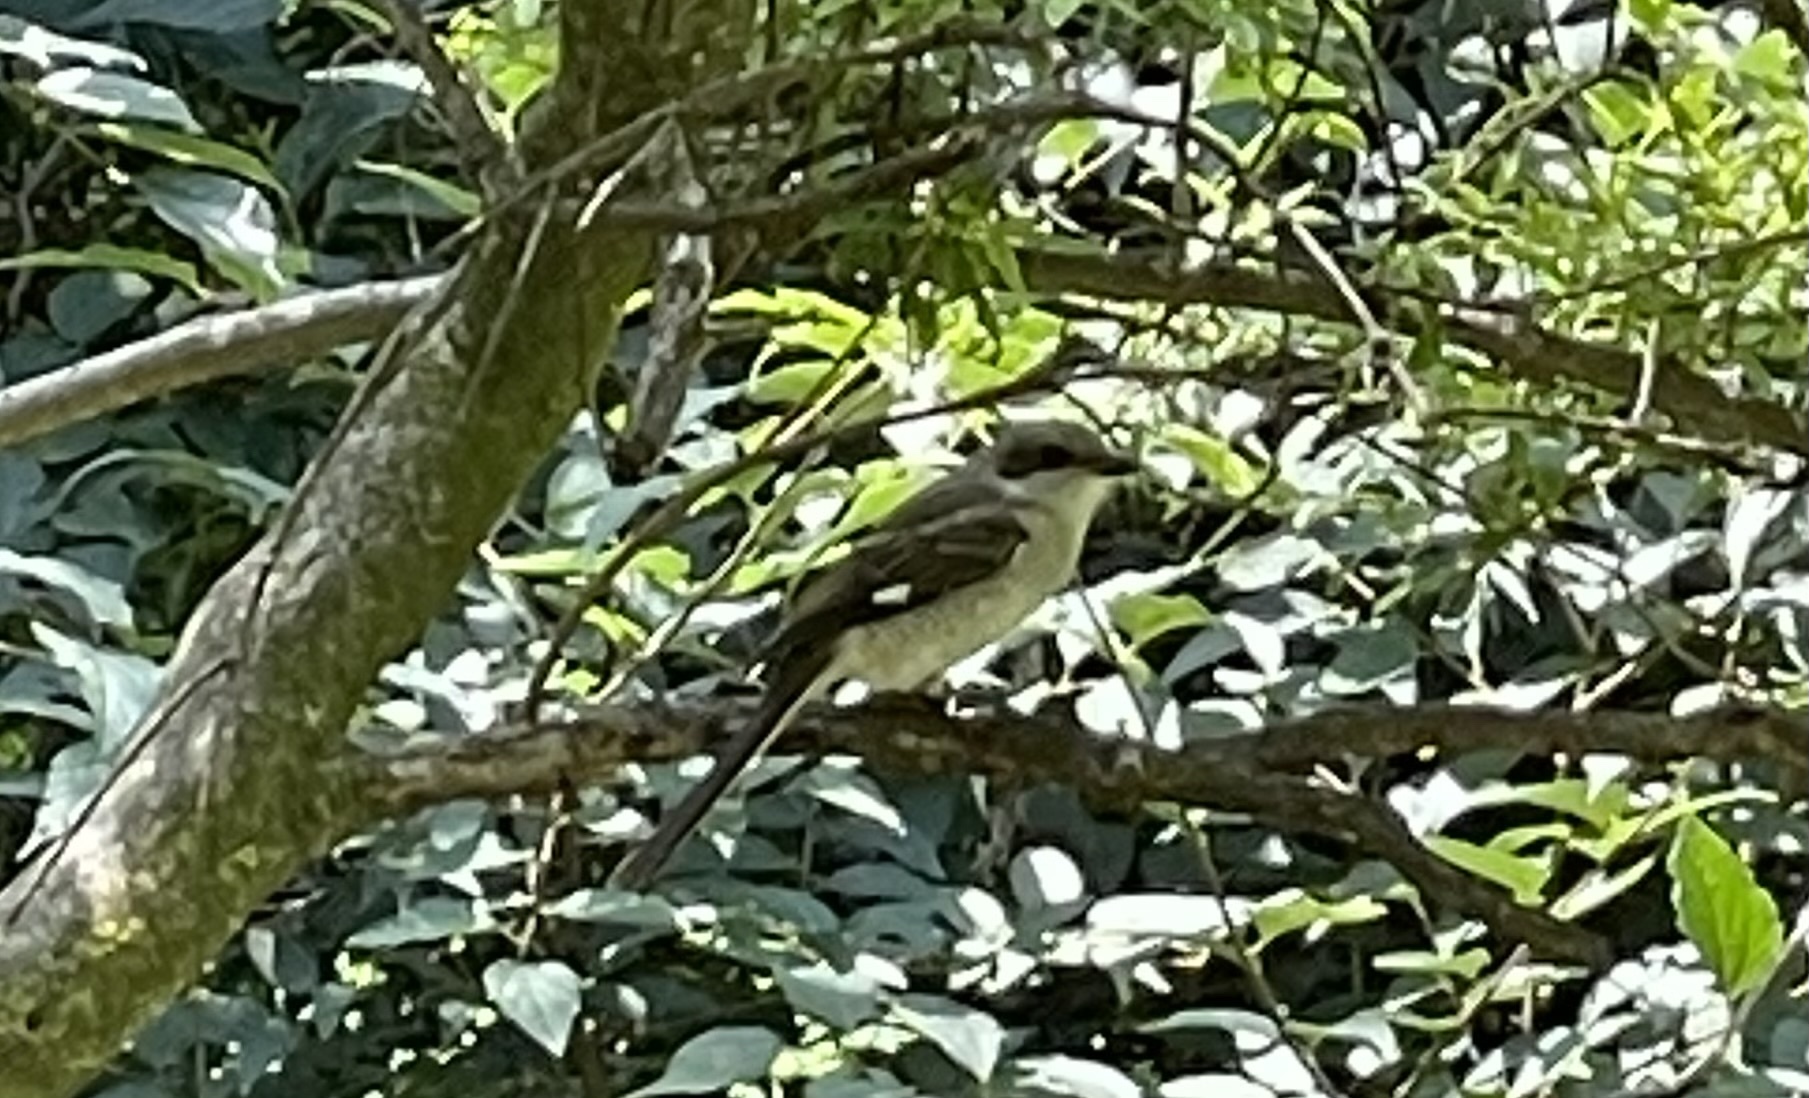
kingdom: Animalia
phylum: Chordata
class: Aves
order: Passeriformes
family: Muscicapidae
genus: Sigelus
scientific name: Sigelus silens
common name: Fiscal flycatcher
